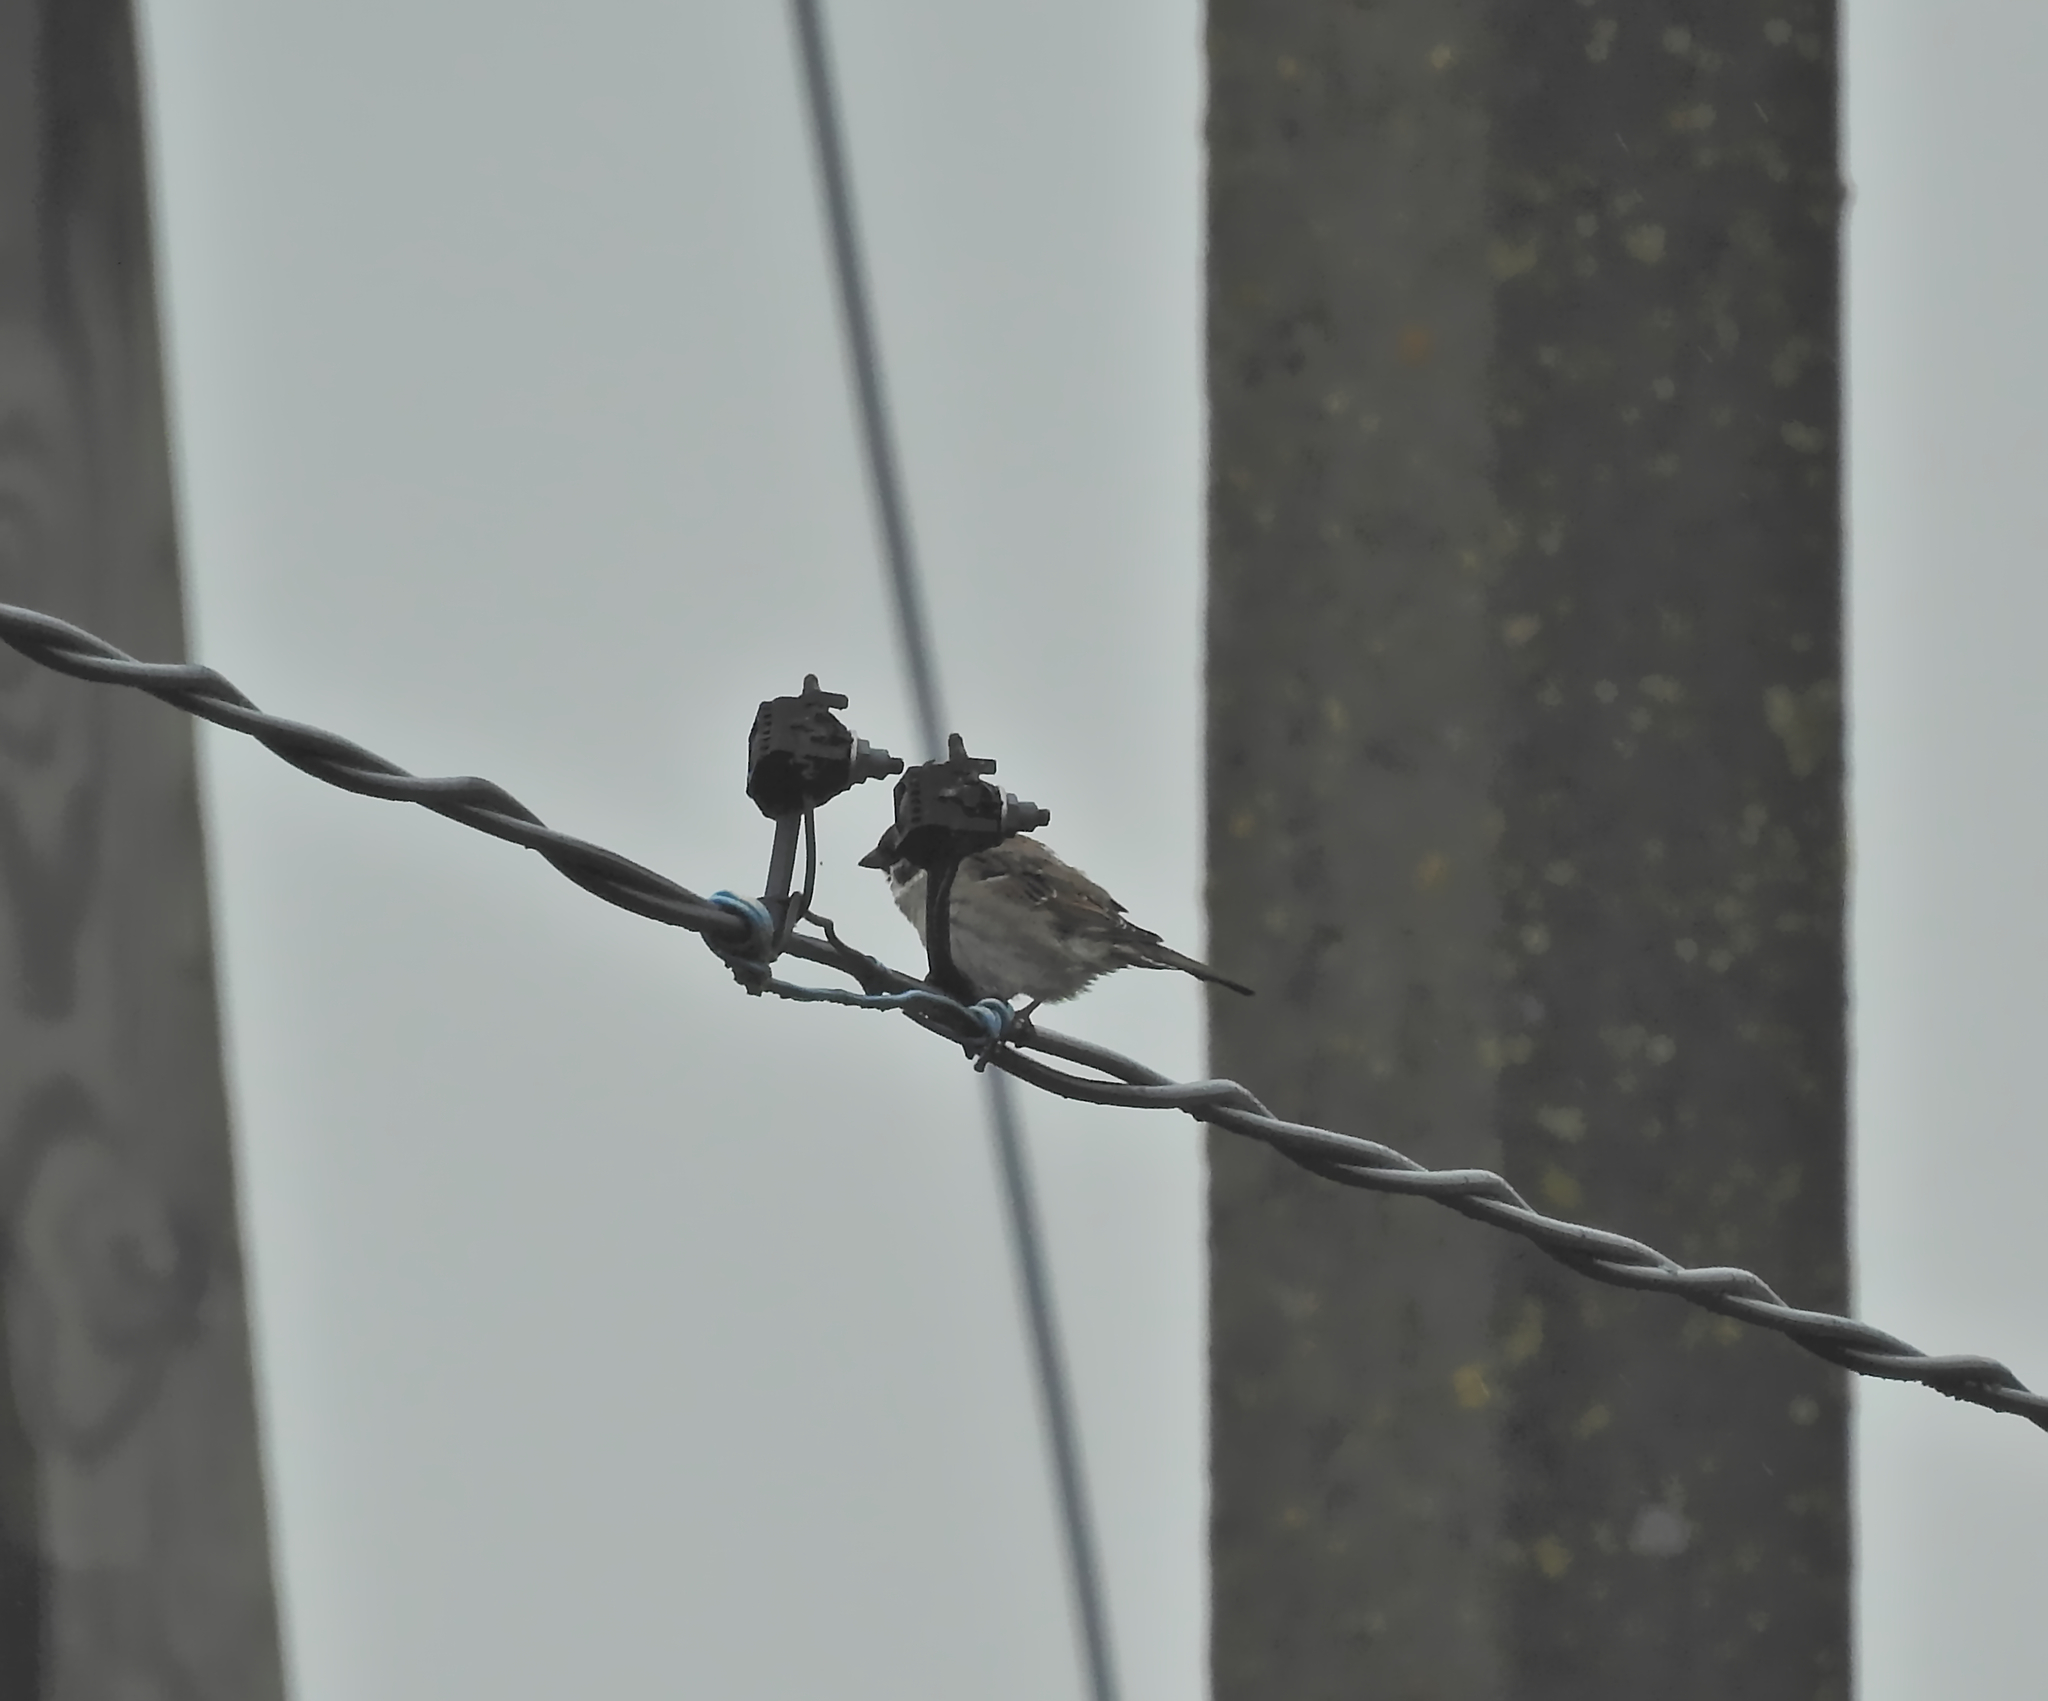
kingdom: Animalia
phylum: Chordata
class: Aves
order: Passeriformes
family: Passeridae
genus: Passer
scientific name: Passer montanus
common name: Eurasian tree sparrow
